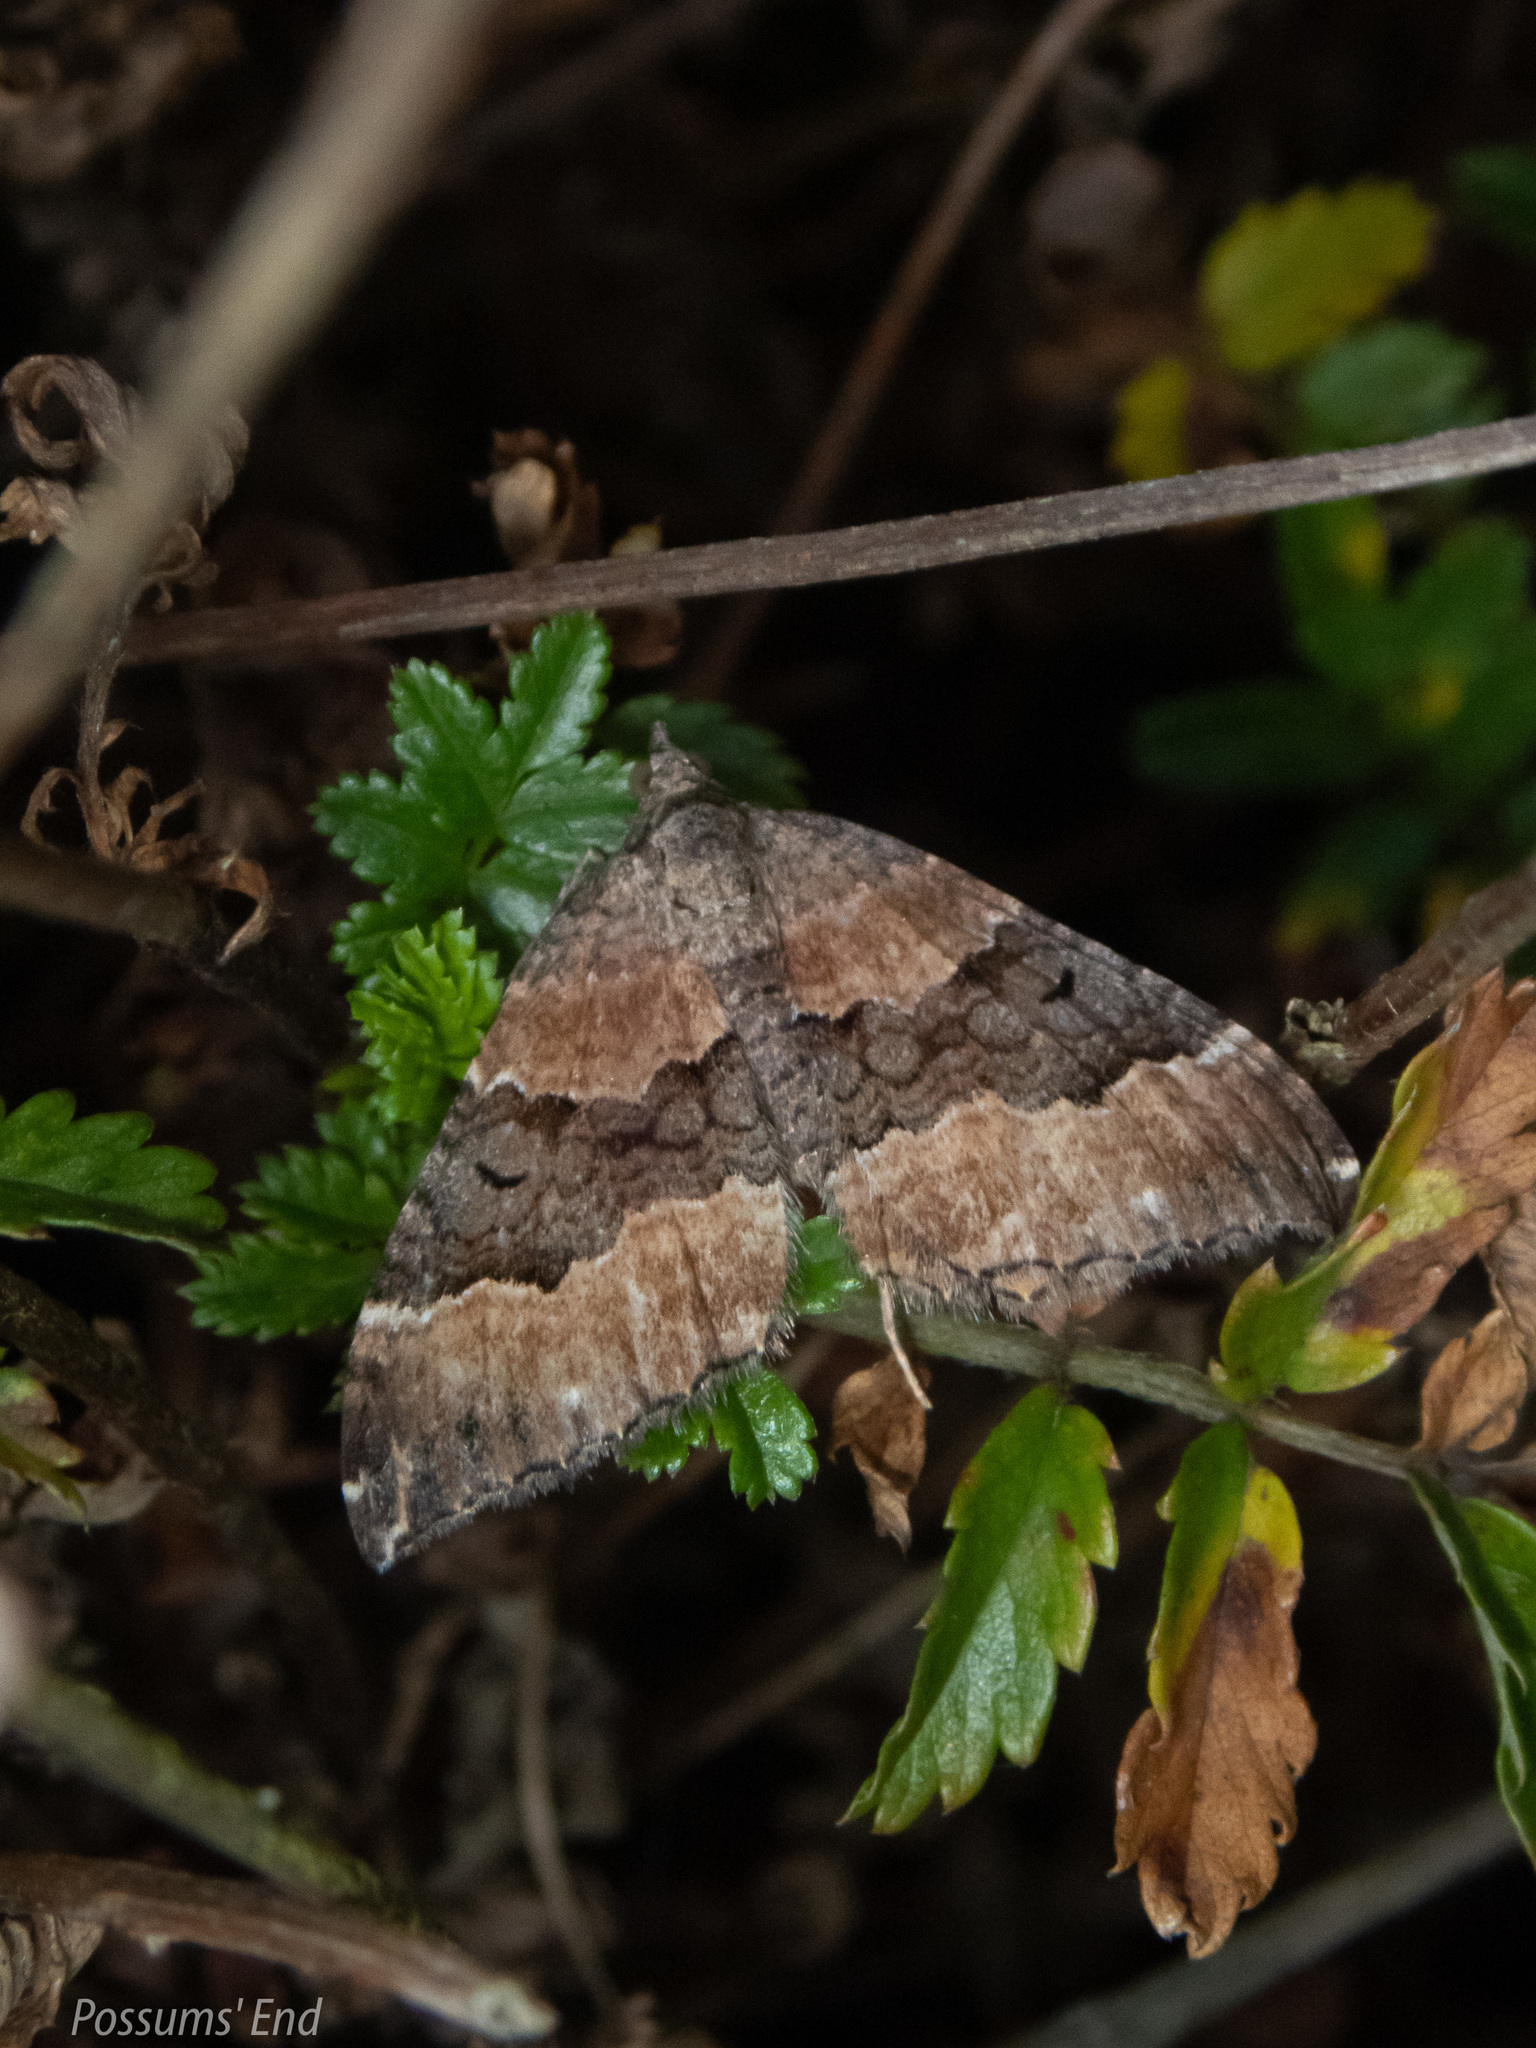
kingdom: Animalia
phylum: Arthropoda
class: Insecta
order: Lepidoptera
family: Geometridae
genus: Hydriomena
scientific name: Hydriomena deltoidata
